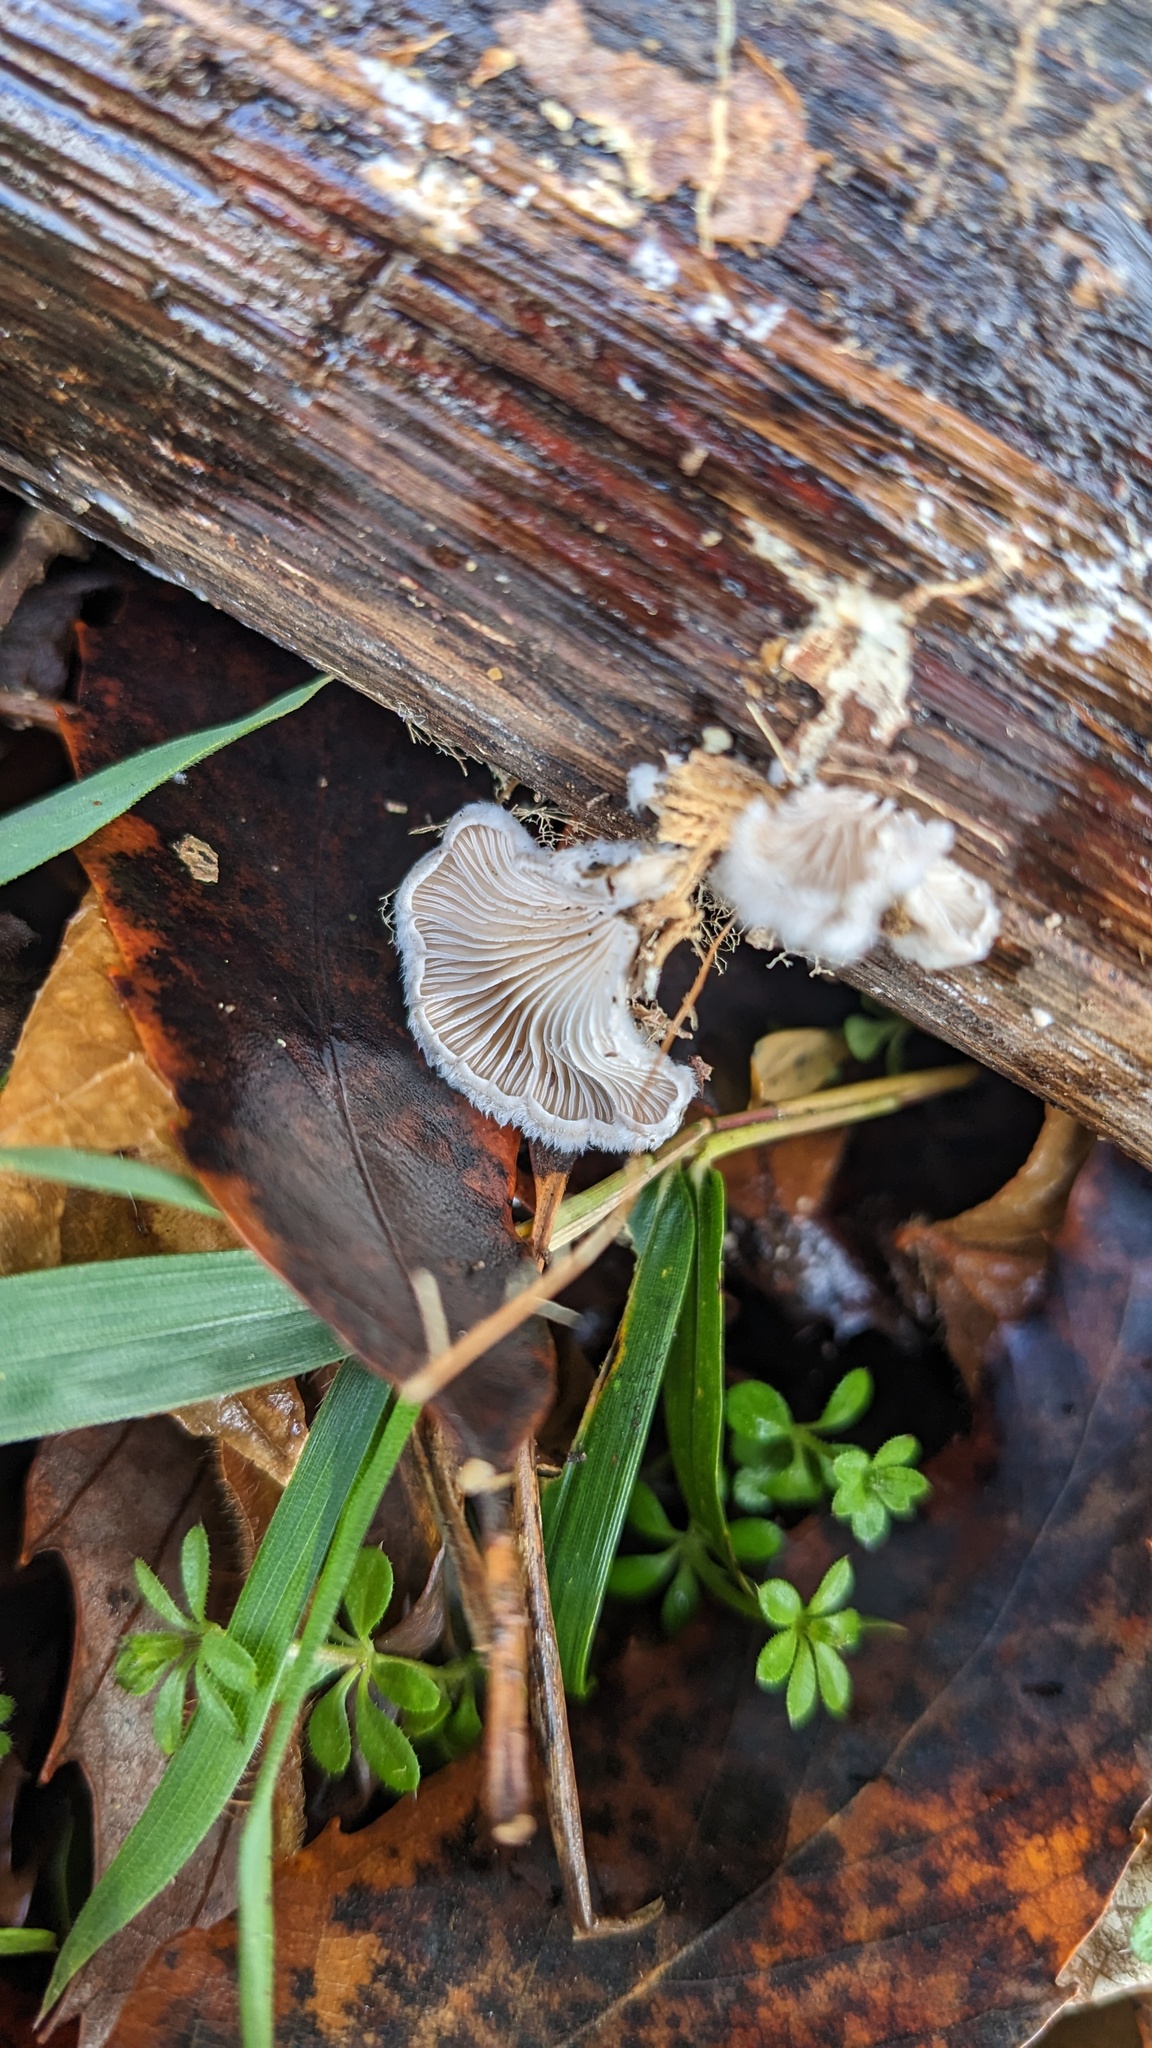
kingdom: Fungi
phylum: Basidiomycota
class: Agaricomycetes
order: Agaricales
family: Schizophyllaceae
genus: Schizophyllum
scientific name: Schizophyllum commune
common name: Common porecrust
